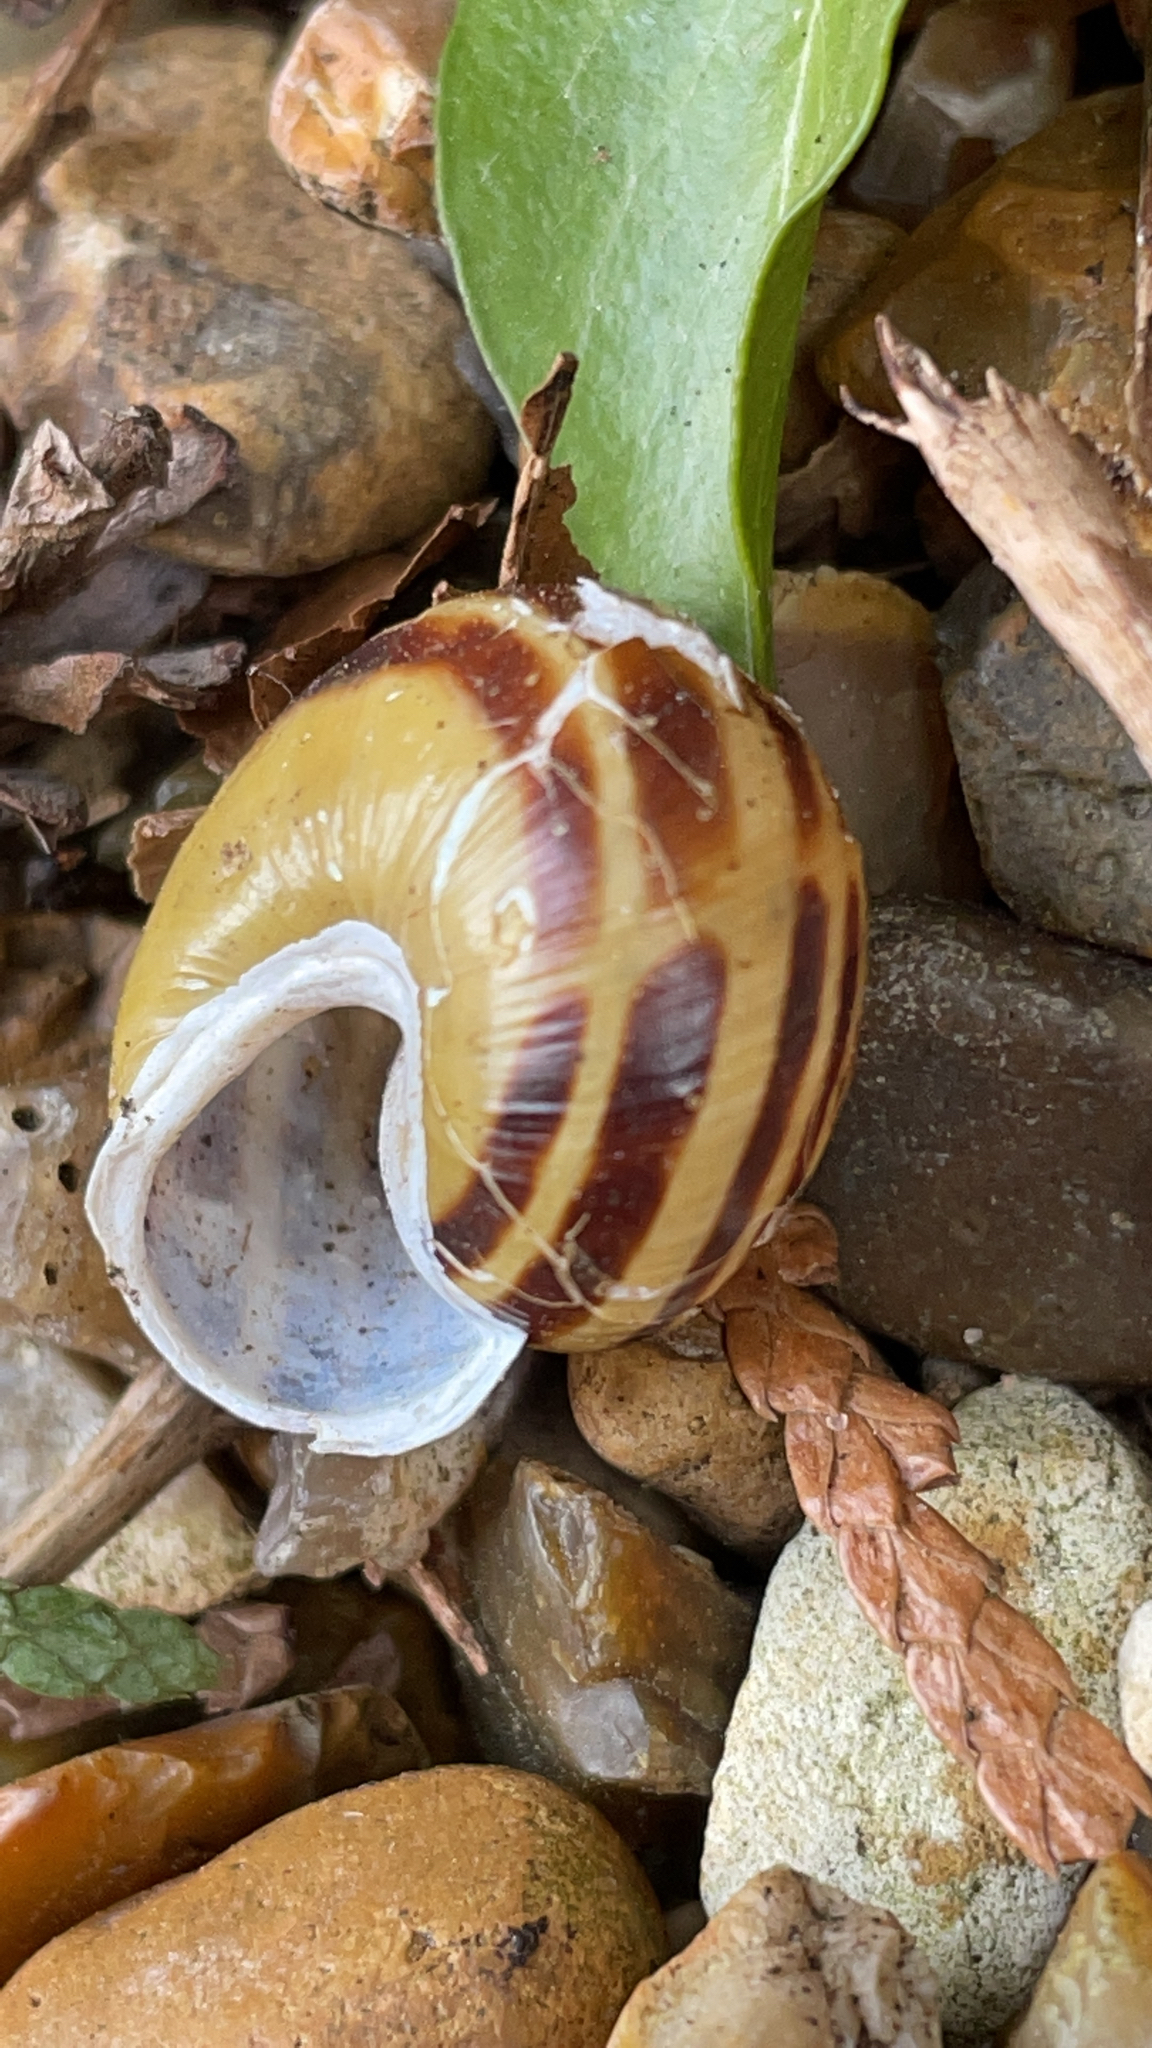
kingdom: Animalia
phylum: Mollusca
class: Gastropoda
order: Stylommatophora
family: Helicidae
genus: Cepaea
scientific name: Cepaea hortensis
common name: White-lip gardensnail
